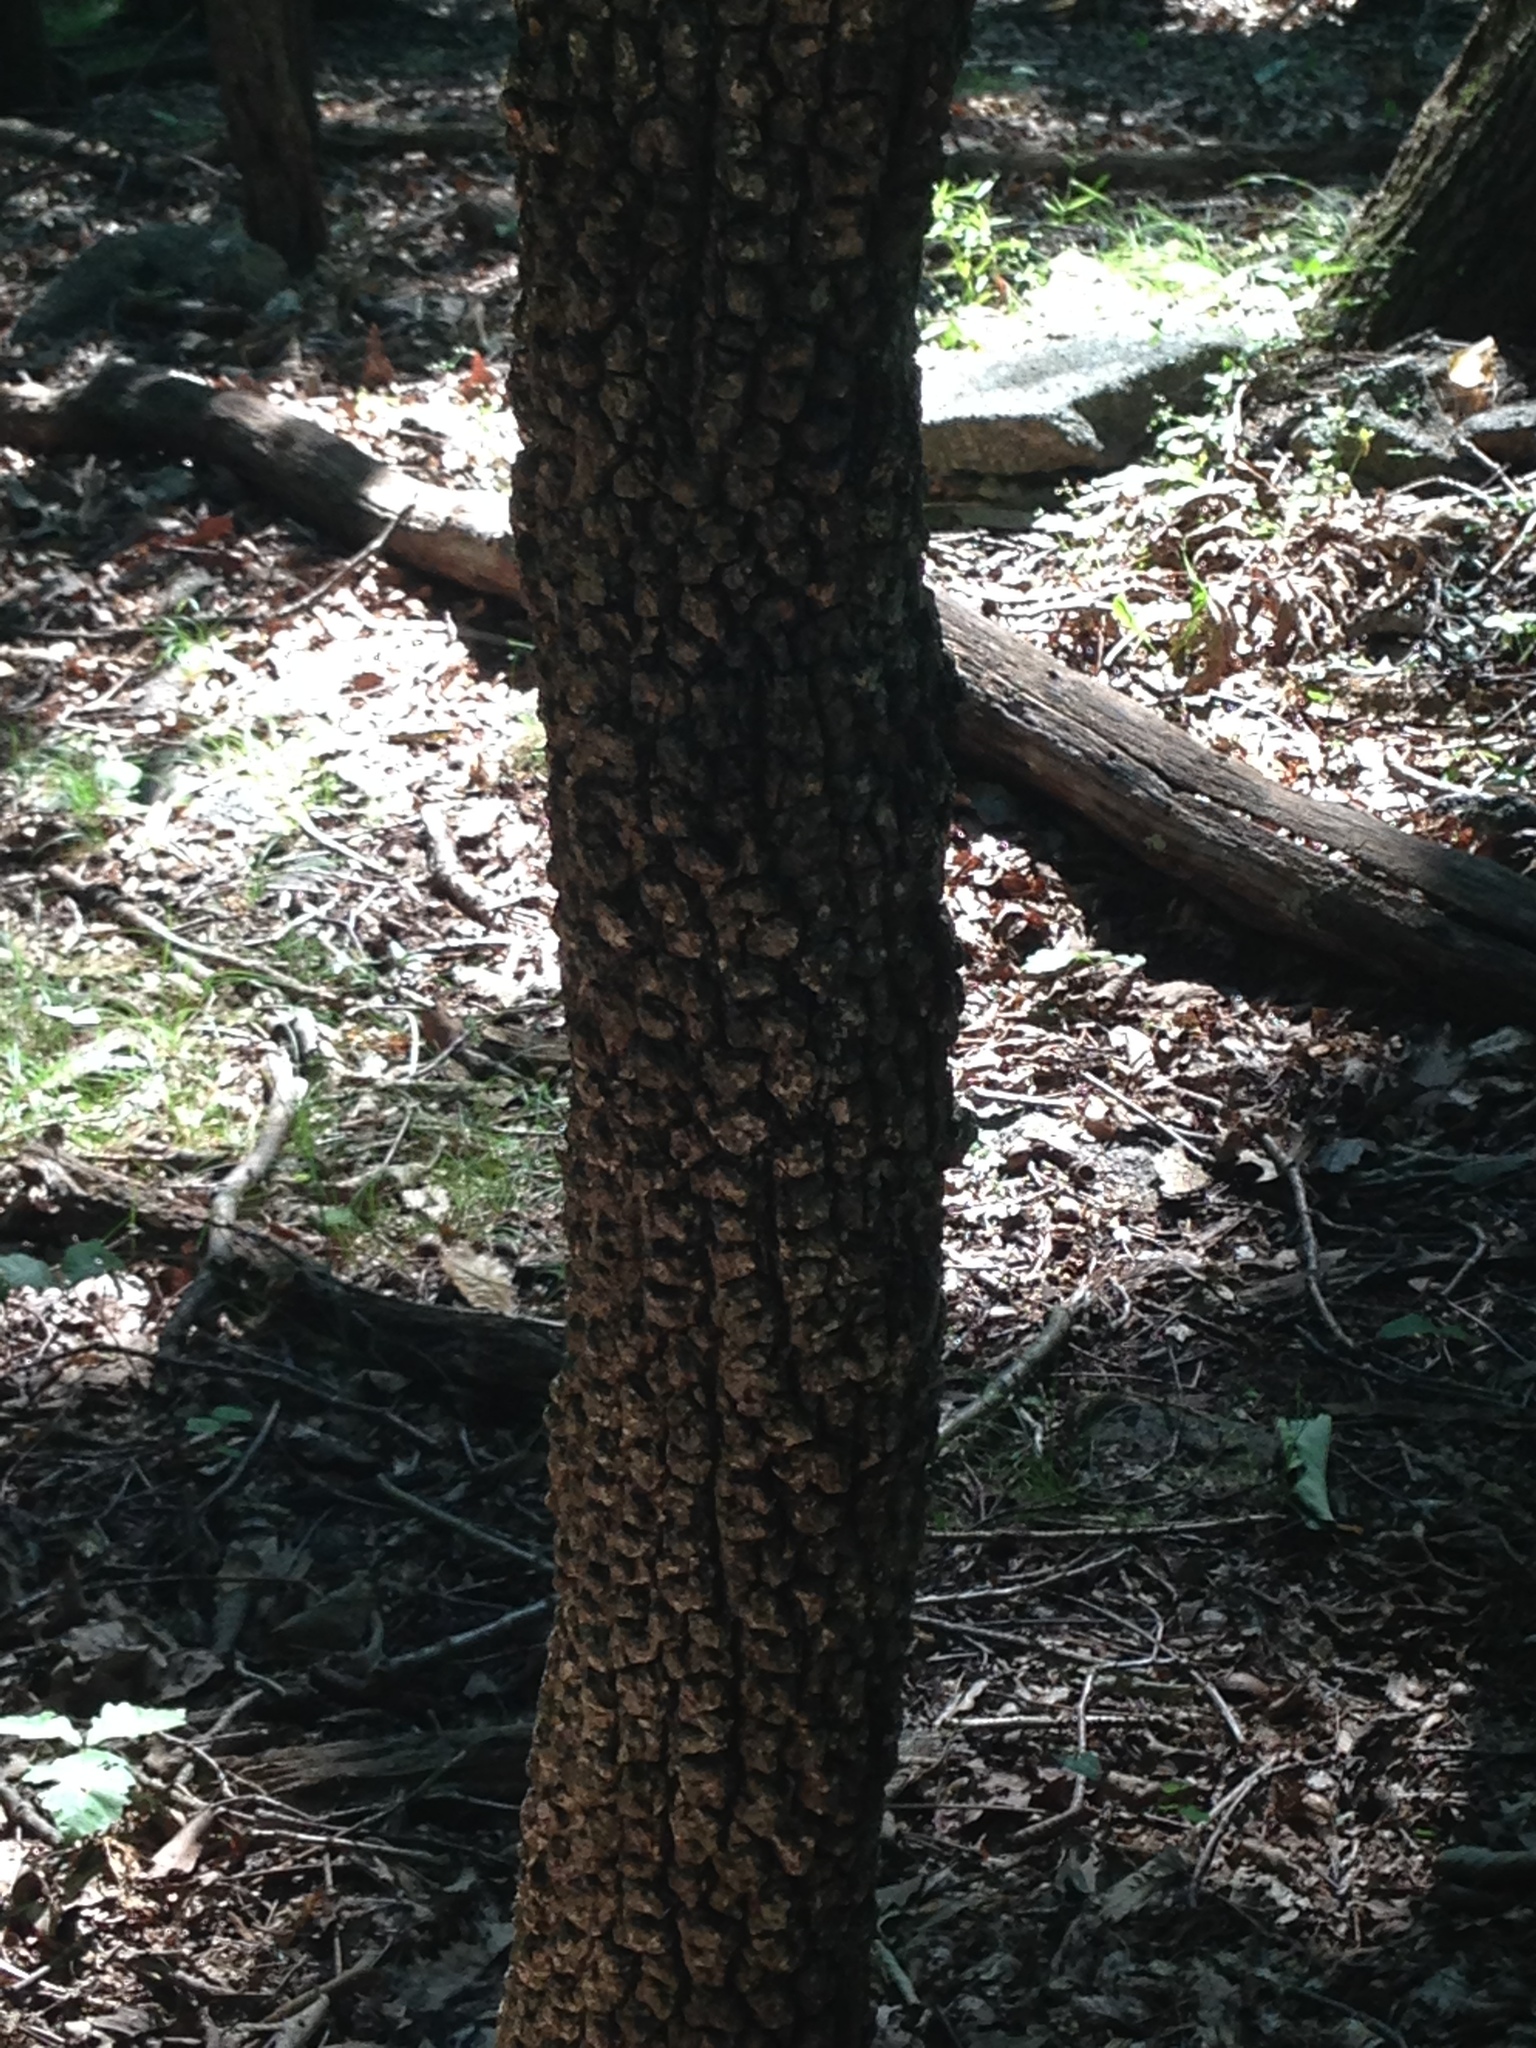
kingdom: Plantae
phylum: Tracheophyta
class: Magnoliopsida
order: Ericales
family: Ebenaceae
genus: Diospyros
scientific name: Diospyros virginiana
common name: Persimmon
